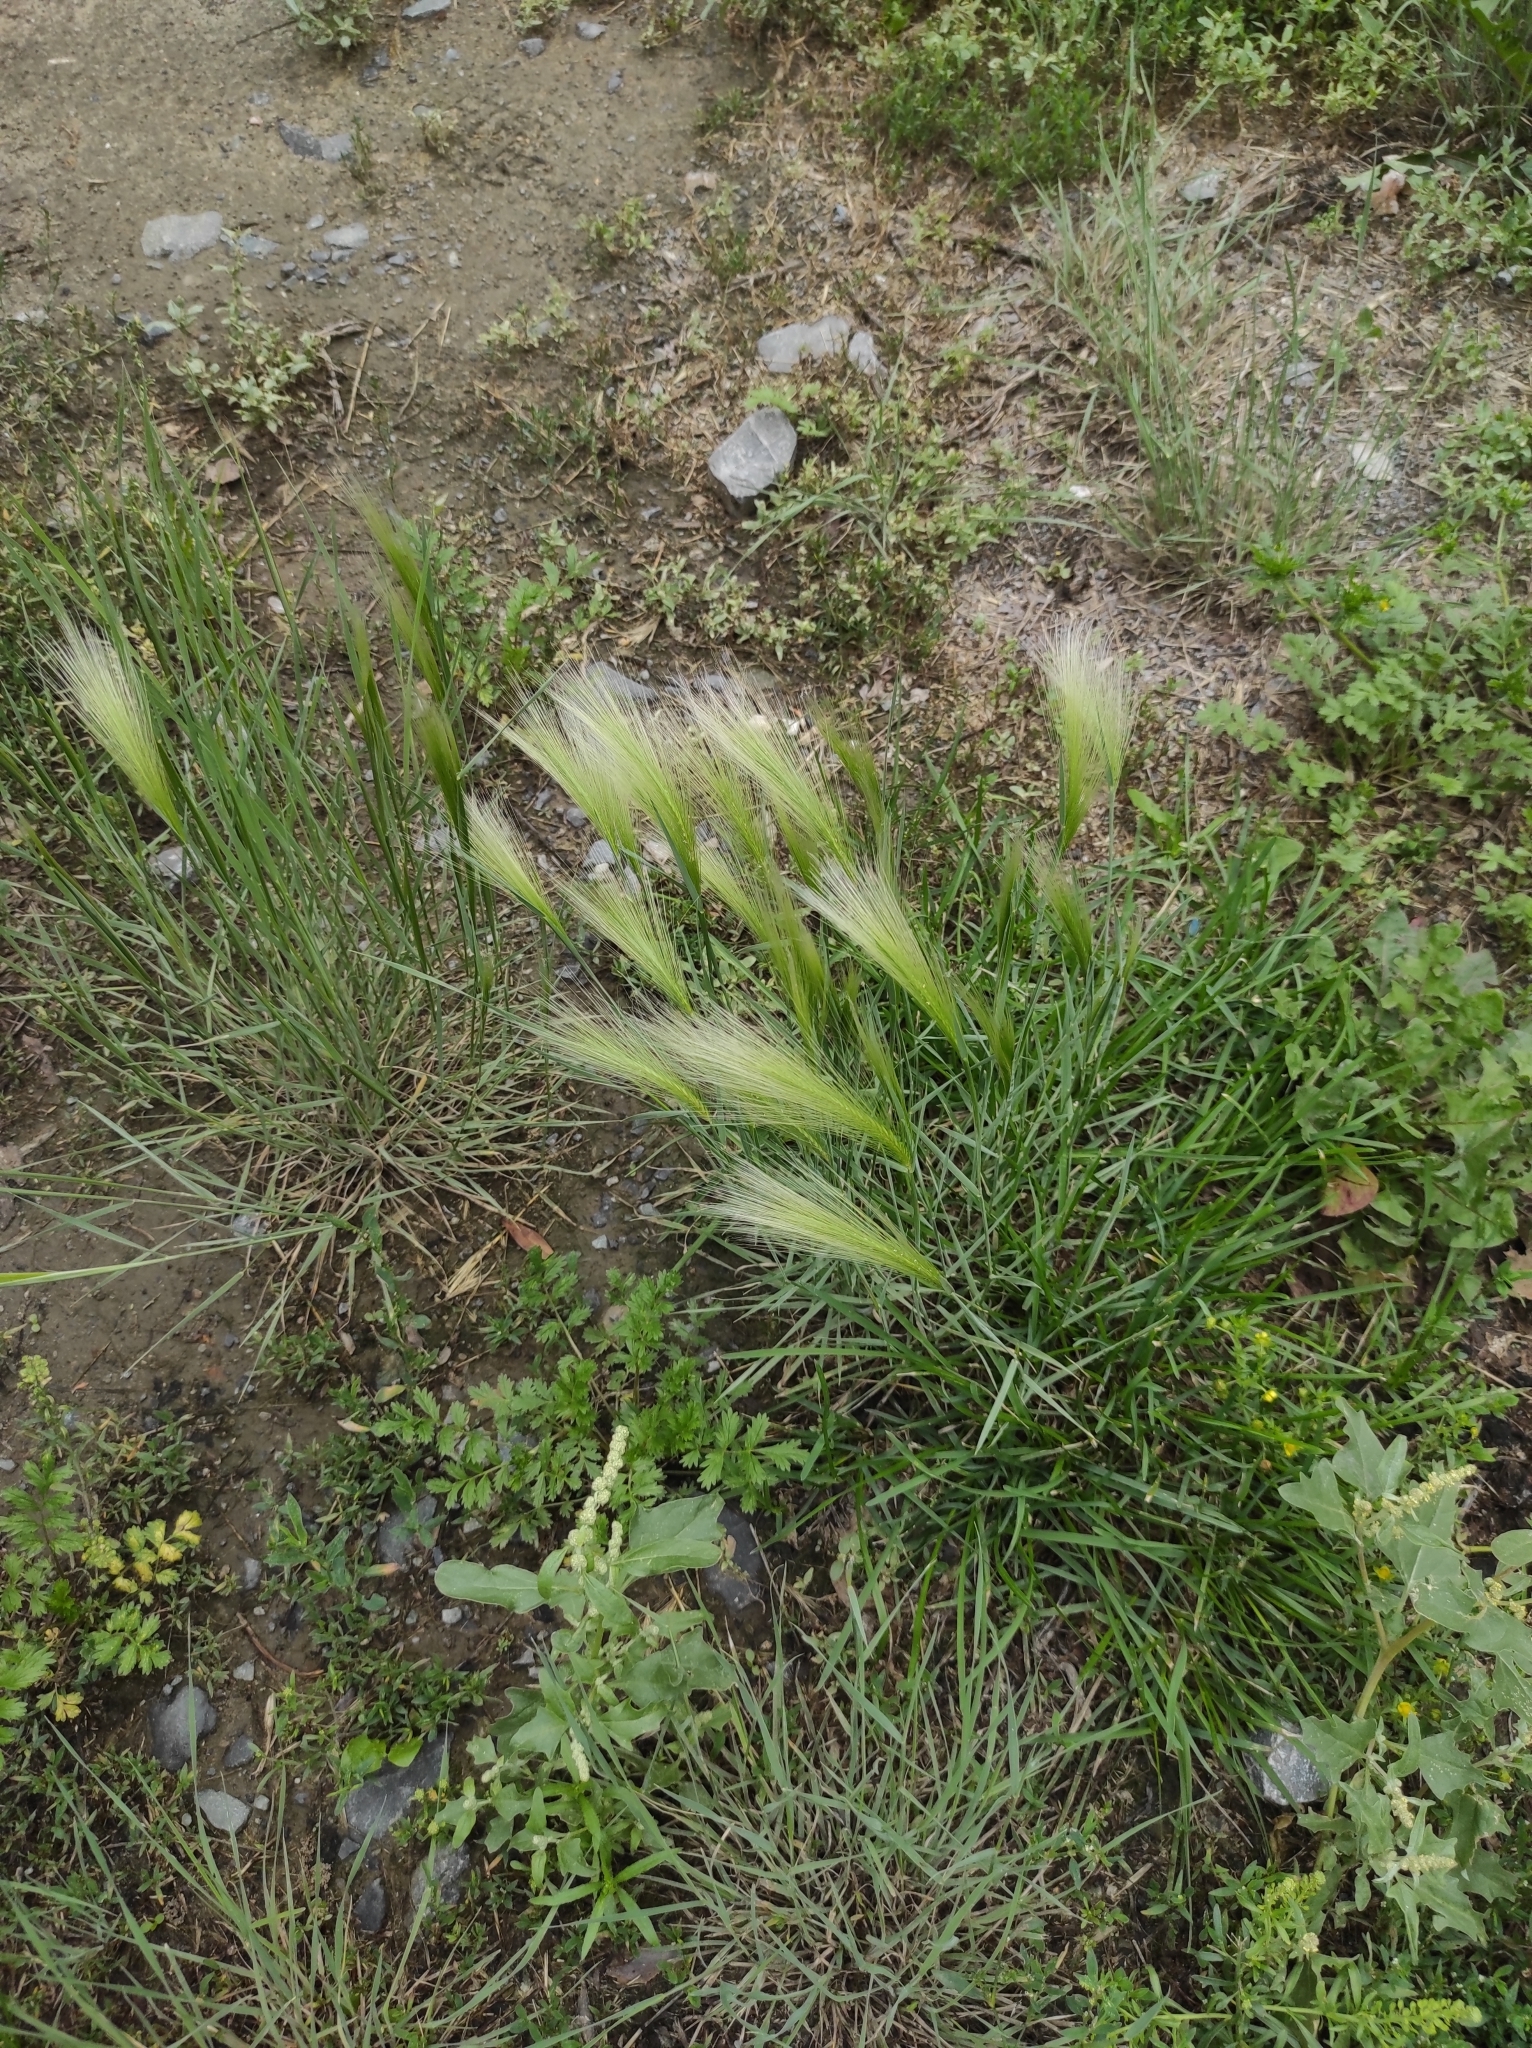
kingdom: Plantae
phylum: Tracheophyta
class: Liliopsida
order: Poales
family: Poaceae
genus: Hordeum
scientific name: Hordeum jubatum
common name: Foxtail barley
